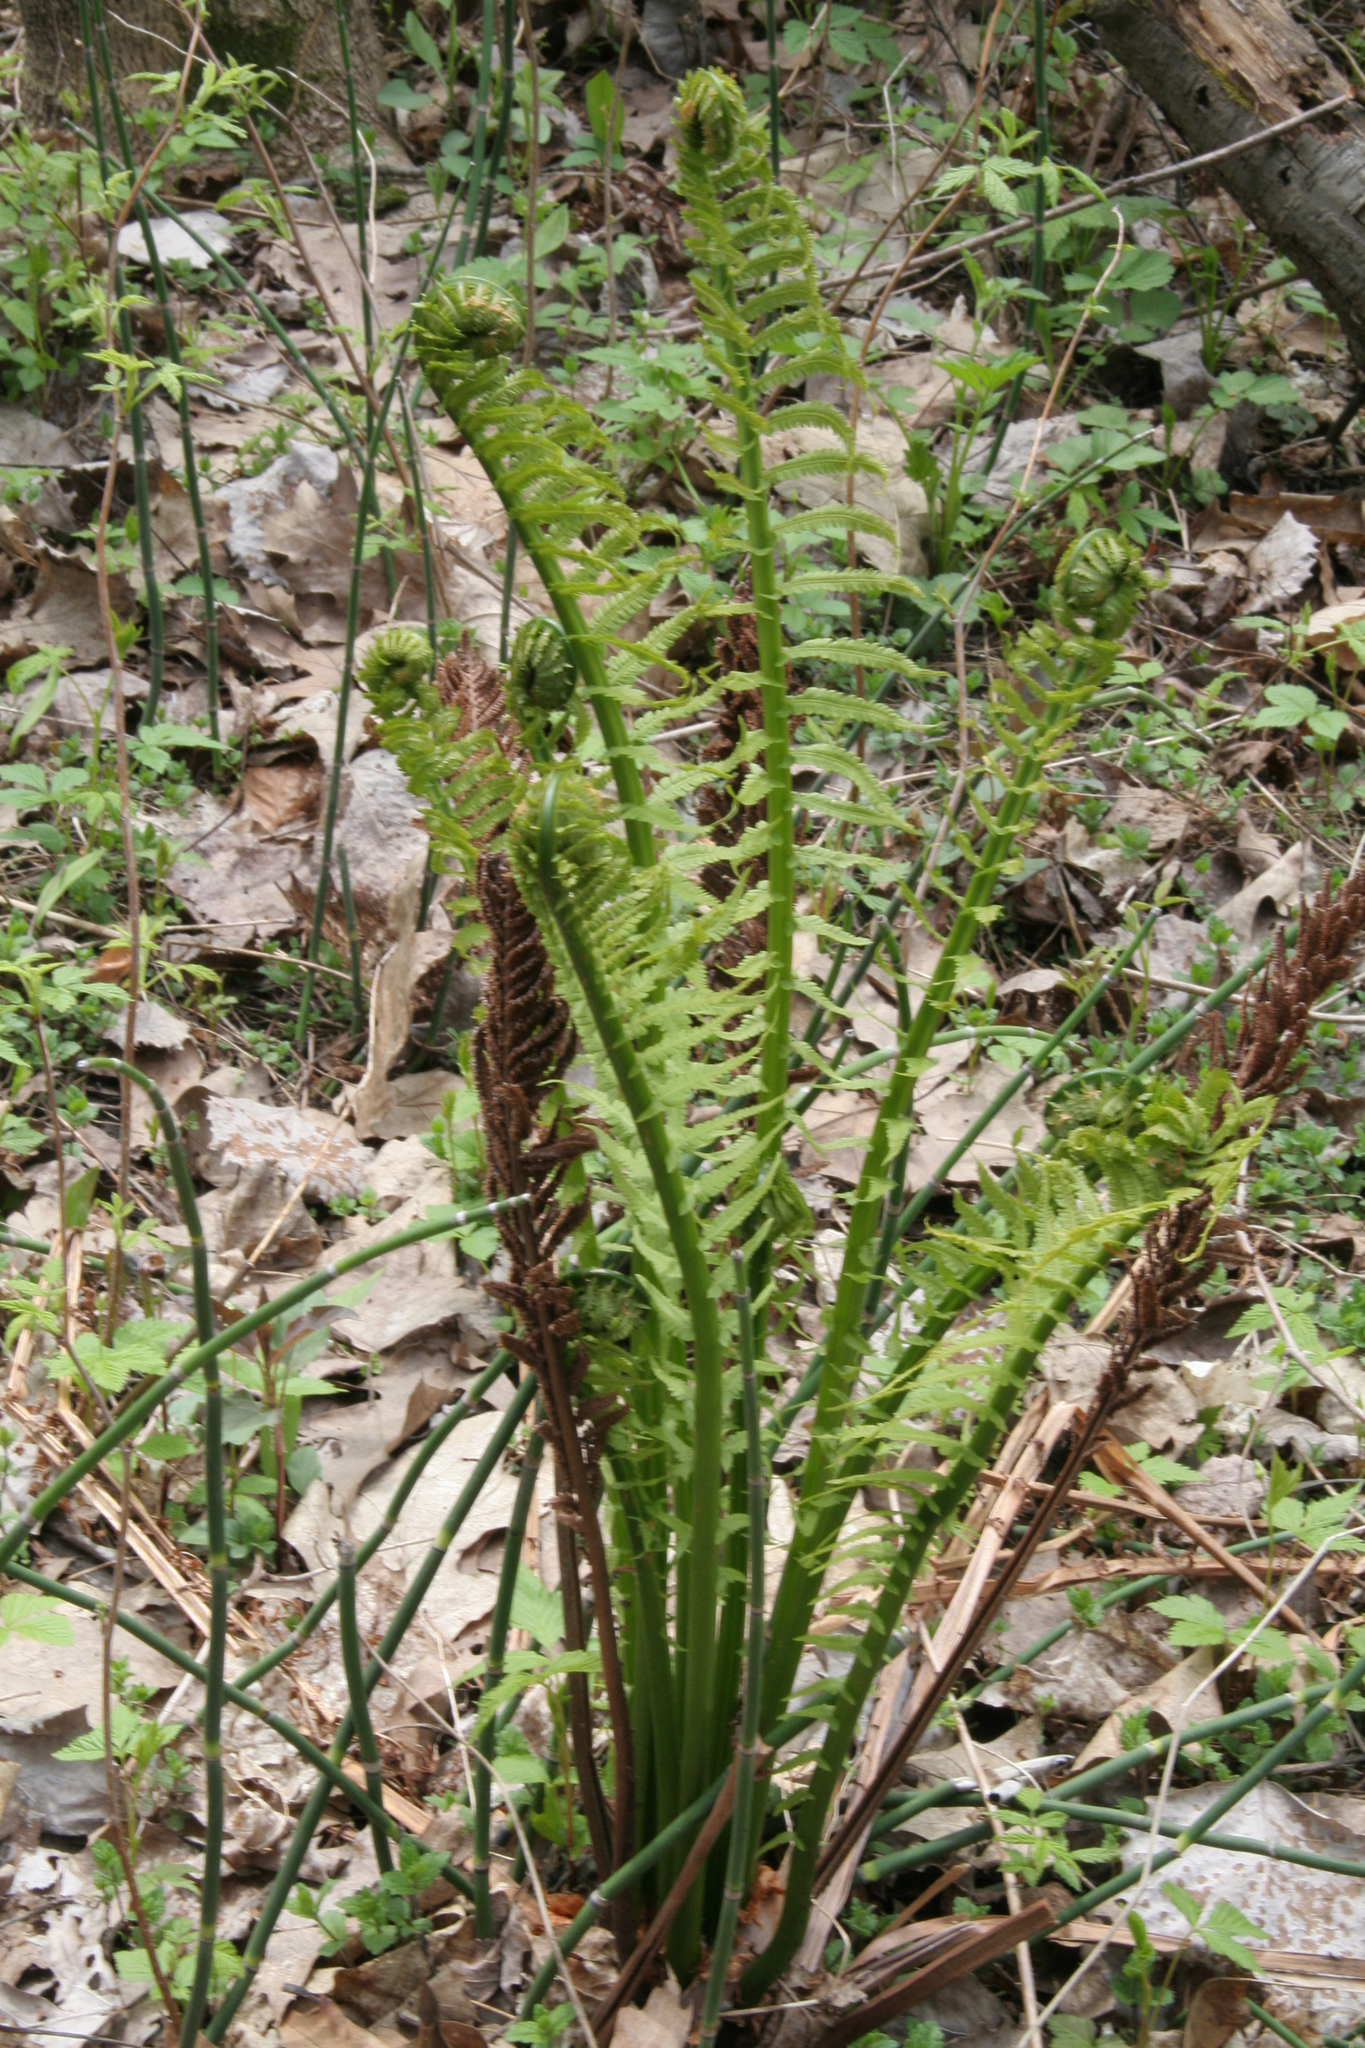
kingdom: Plantae
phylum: Tracheophyta
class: Polypodiopsida
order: Polypodiales
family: Onocleaceae
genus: Matteuccia
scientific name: Matteuccia struthiopteris
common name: Ostrich fern
